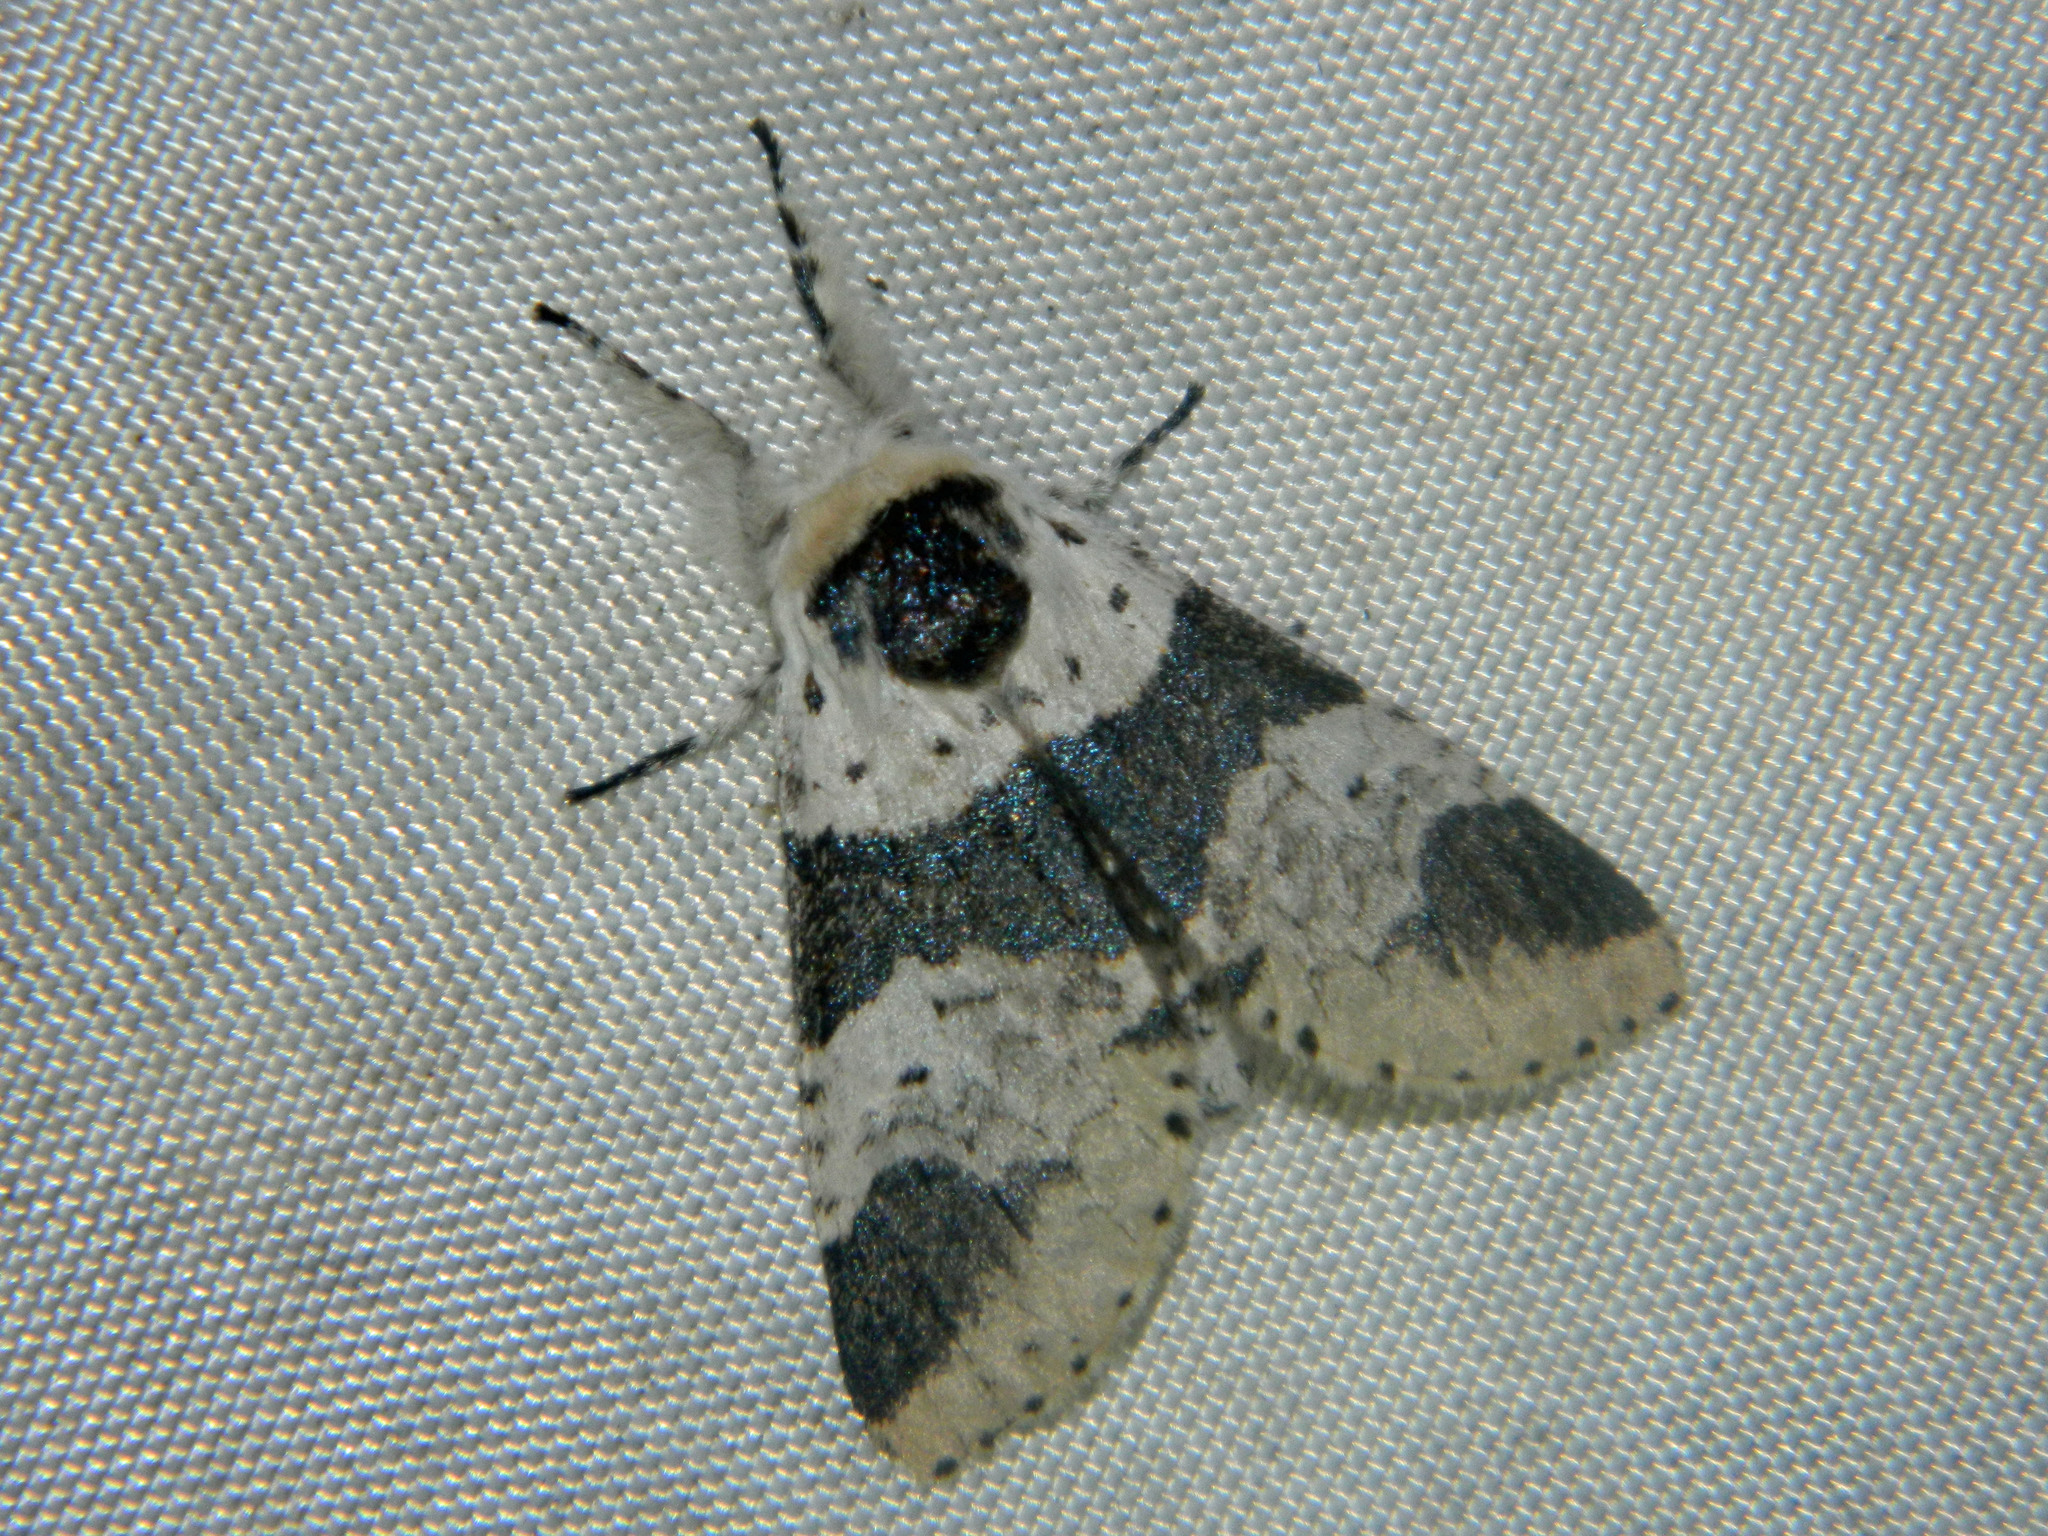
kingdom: Animalia
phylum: Arthropoda
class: Insecta
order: Lepidoptera
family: Notodontidae
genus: Furcula
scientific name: Furcula modesta
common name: Modest furcula moth
